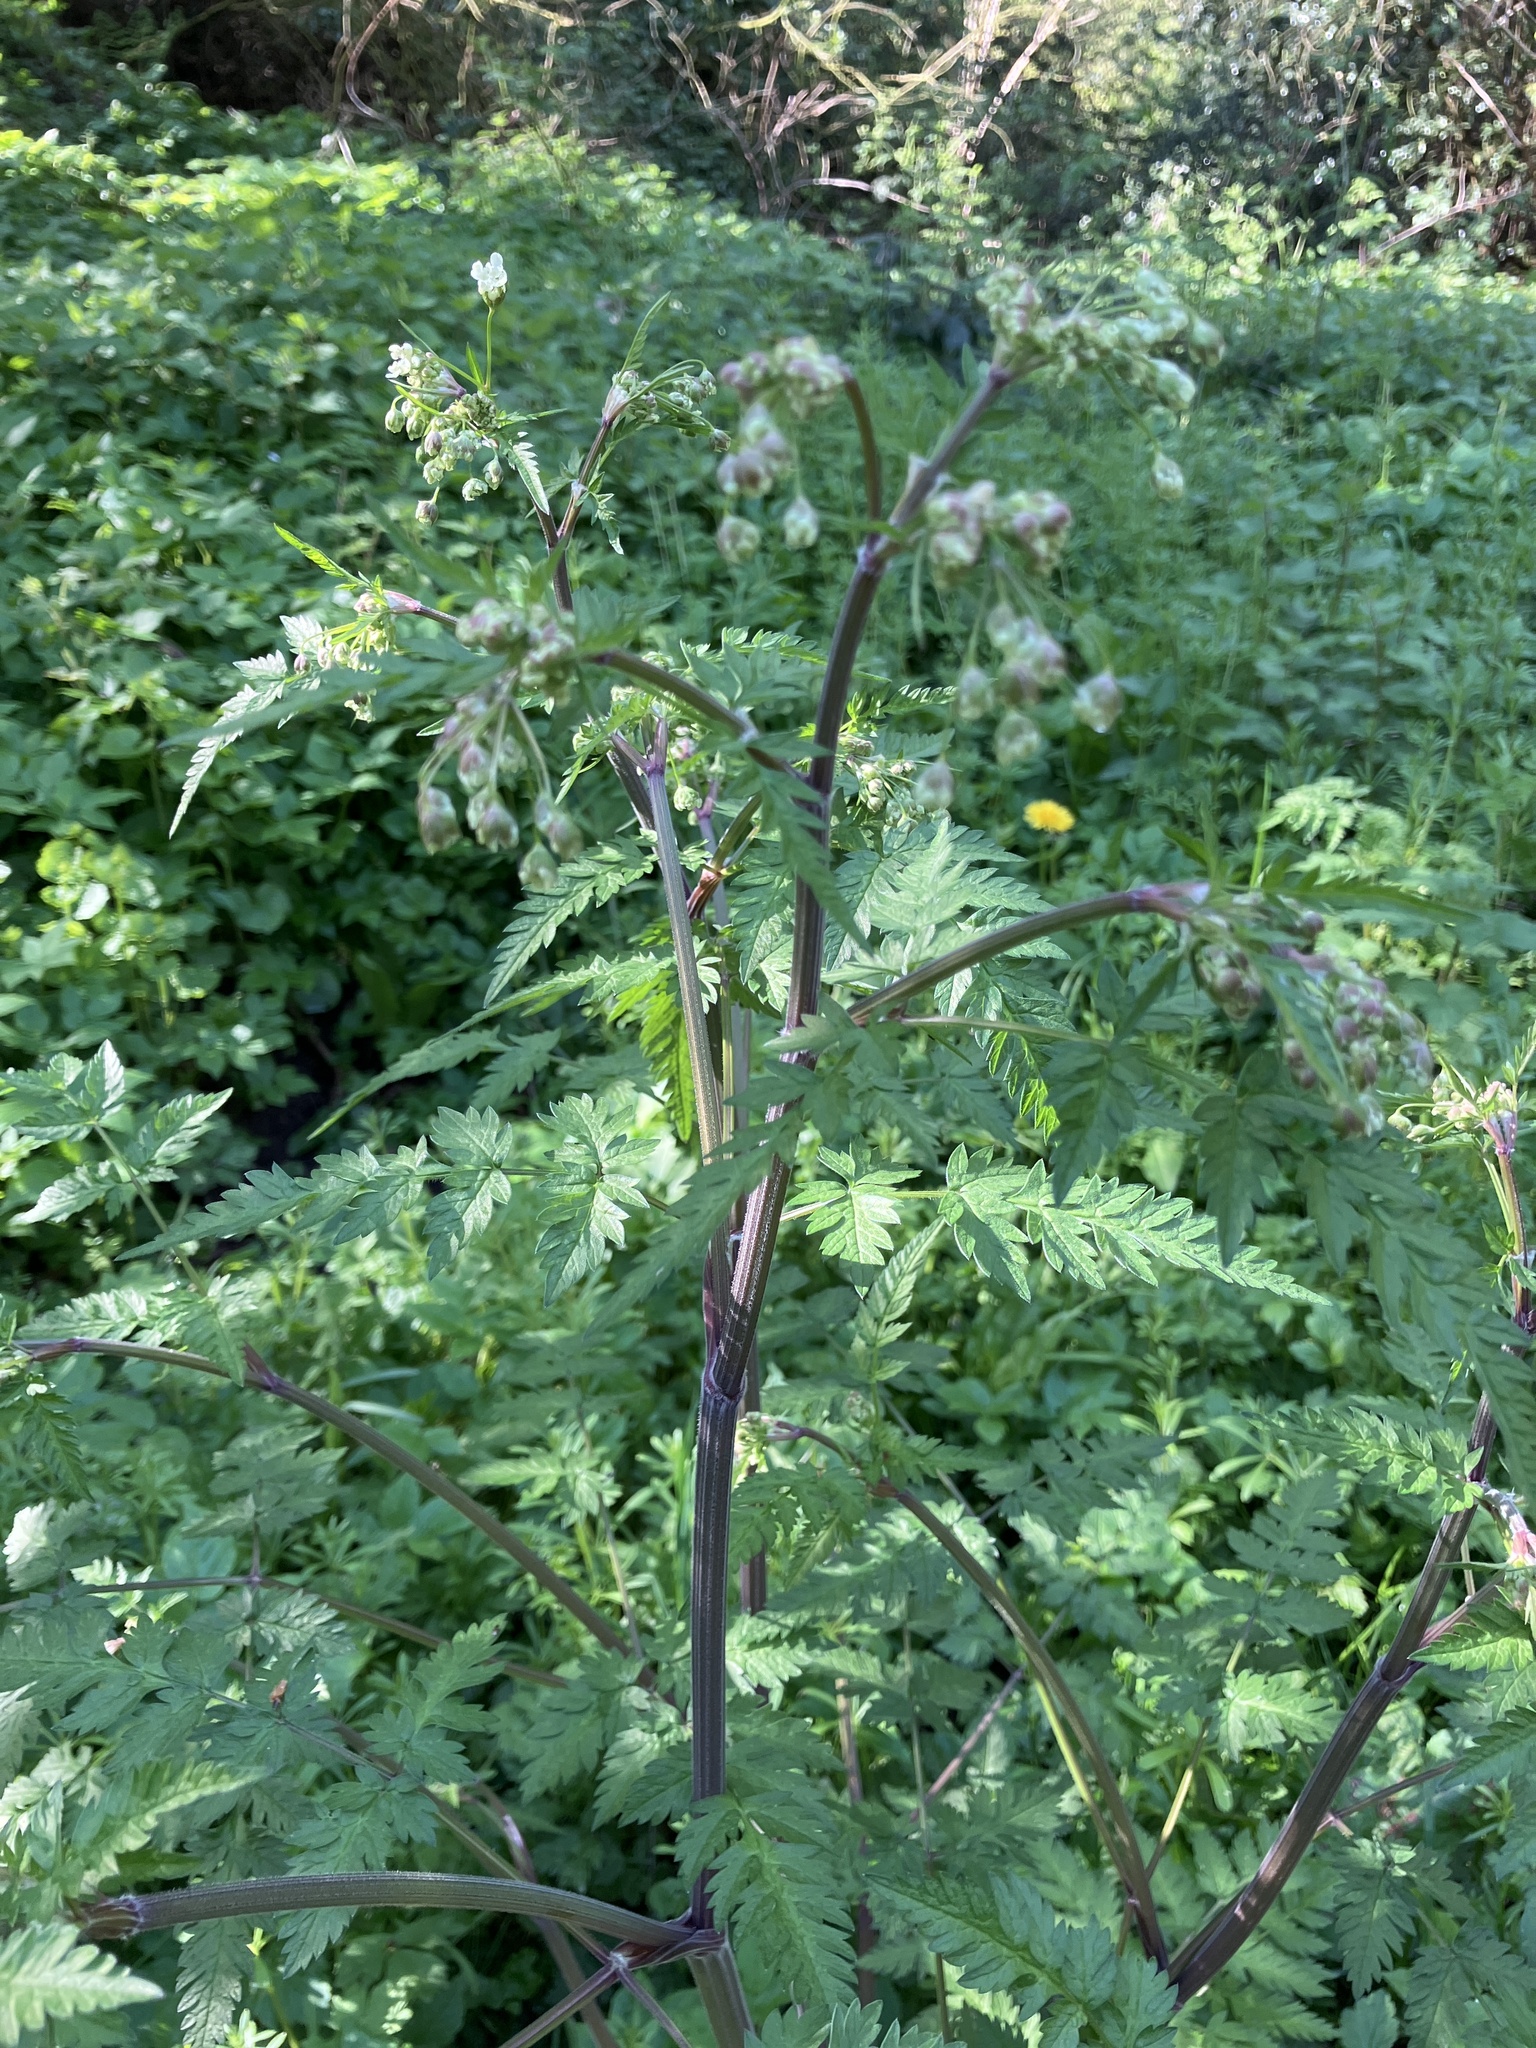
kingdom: Plantae
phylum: Tracheophyta
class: Magnoliopsida
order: Apiales
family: Apiaceae
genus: Anthriscus
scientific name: Anthriscus sylvestris
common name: Cow parsley
